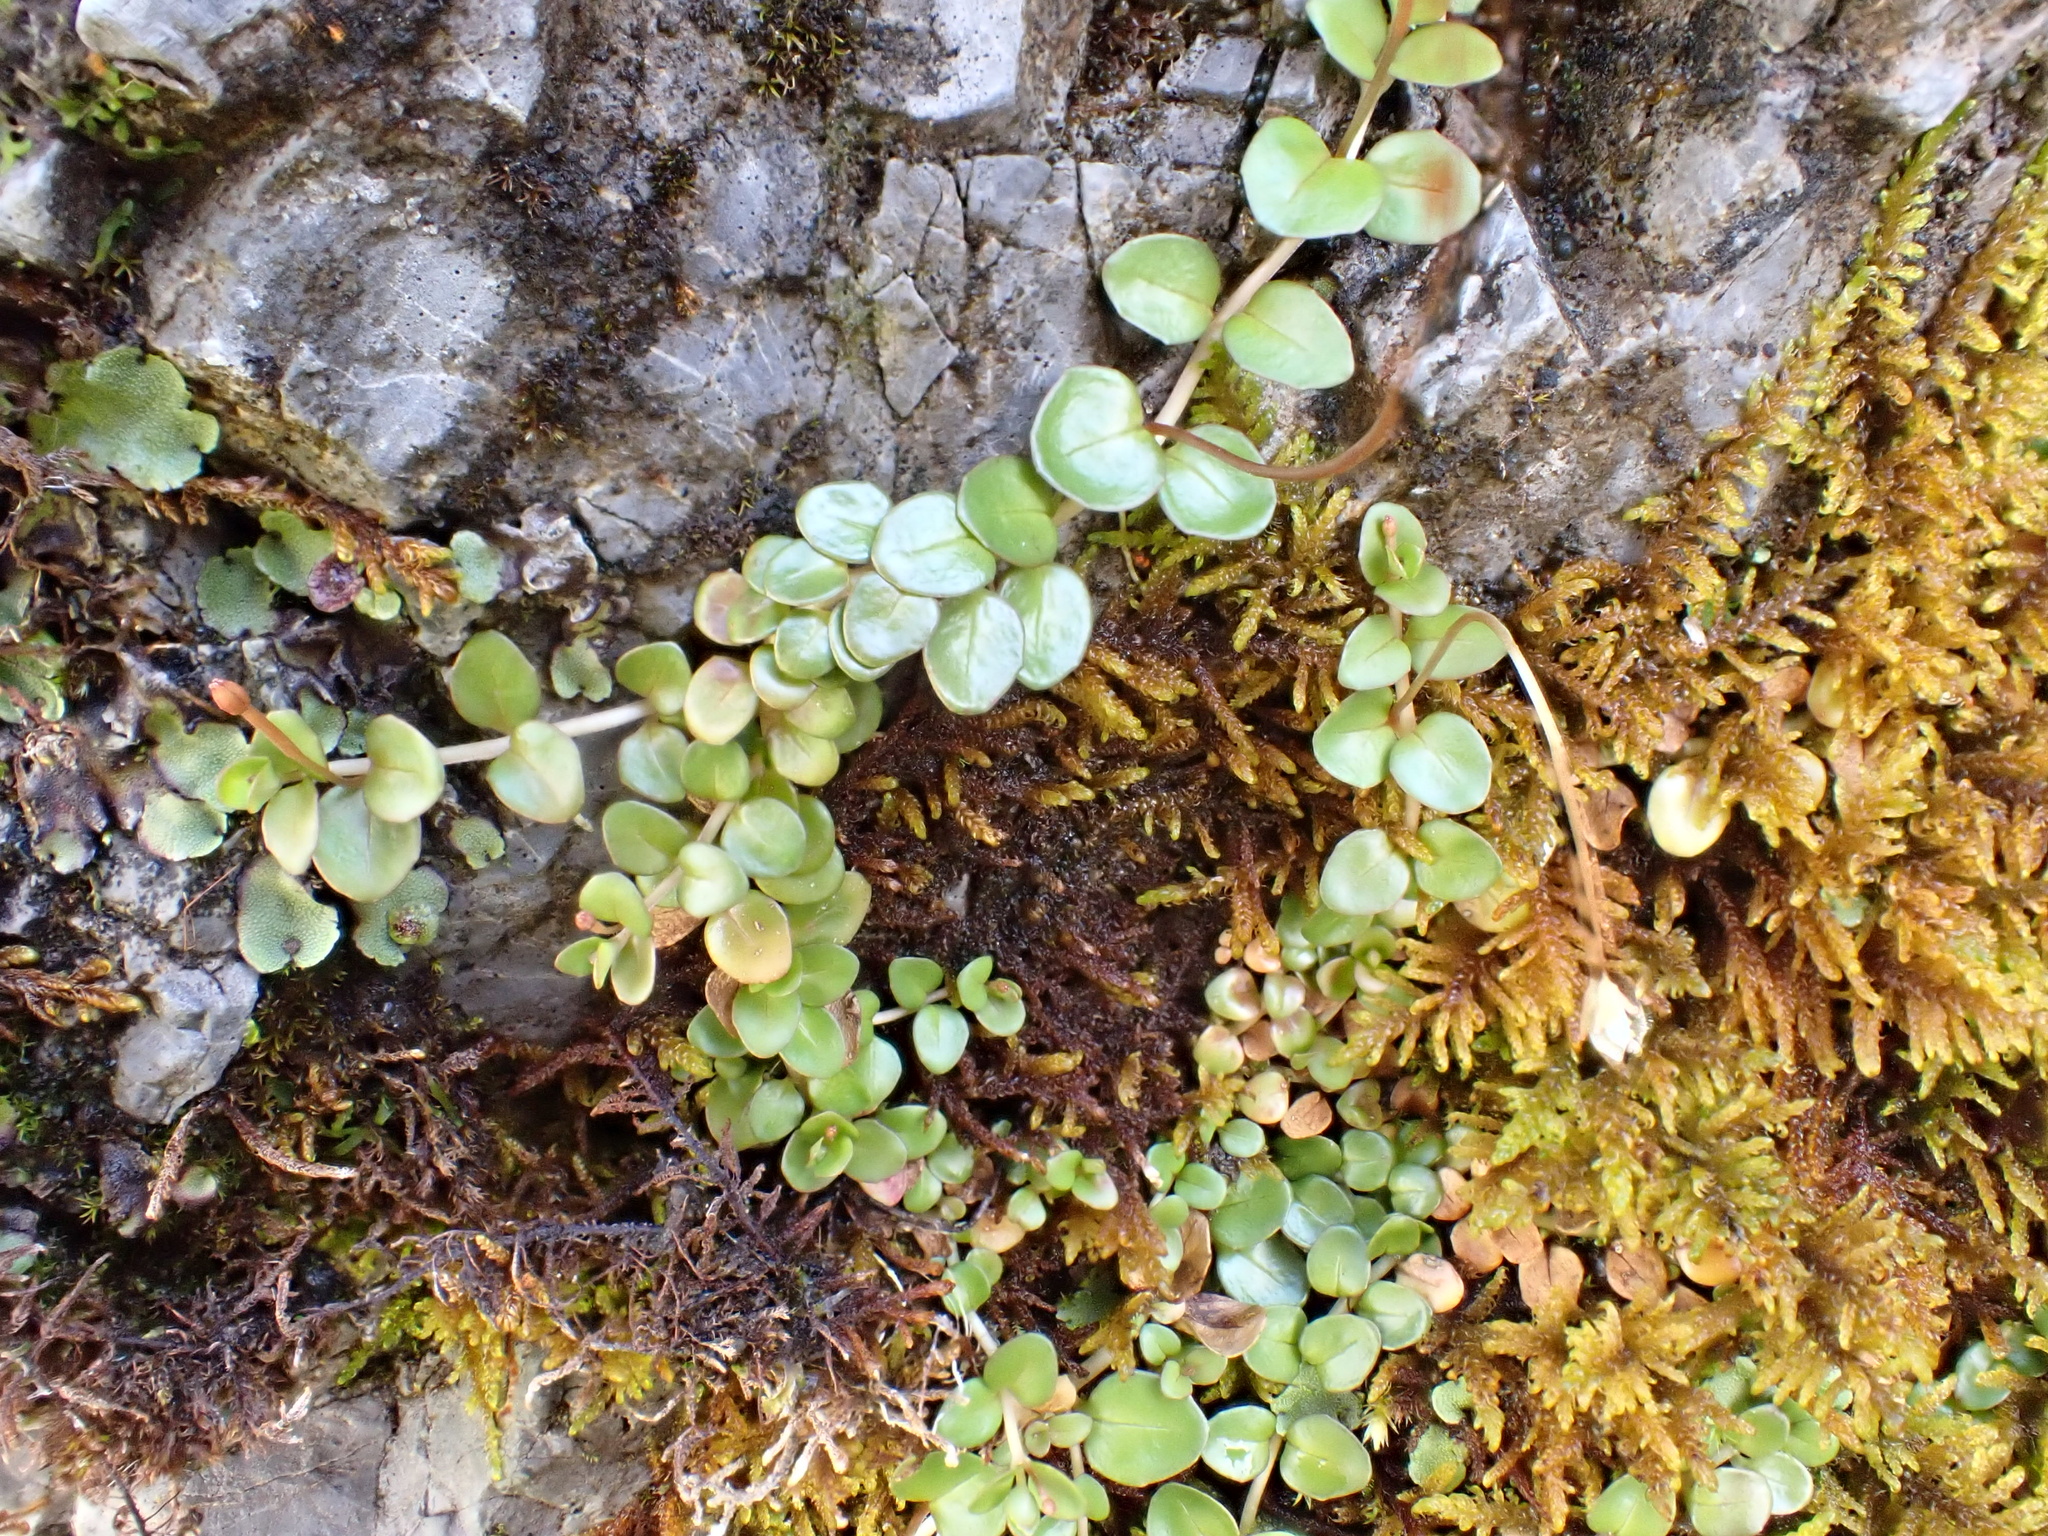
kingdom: Plantae
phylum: Tracheophyta
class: Magnoliopsida
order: Myrtales
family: Onagraceae
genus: Epilobium
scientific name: Epilobium brunnescens
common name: New zealand willowherb
